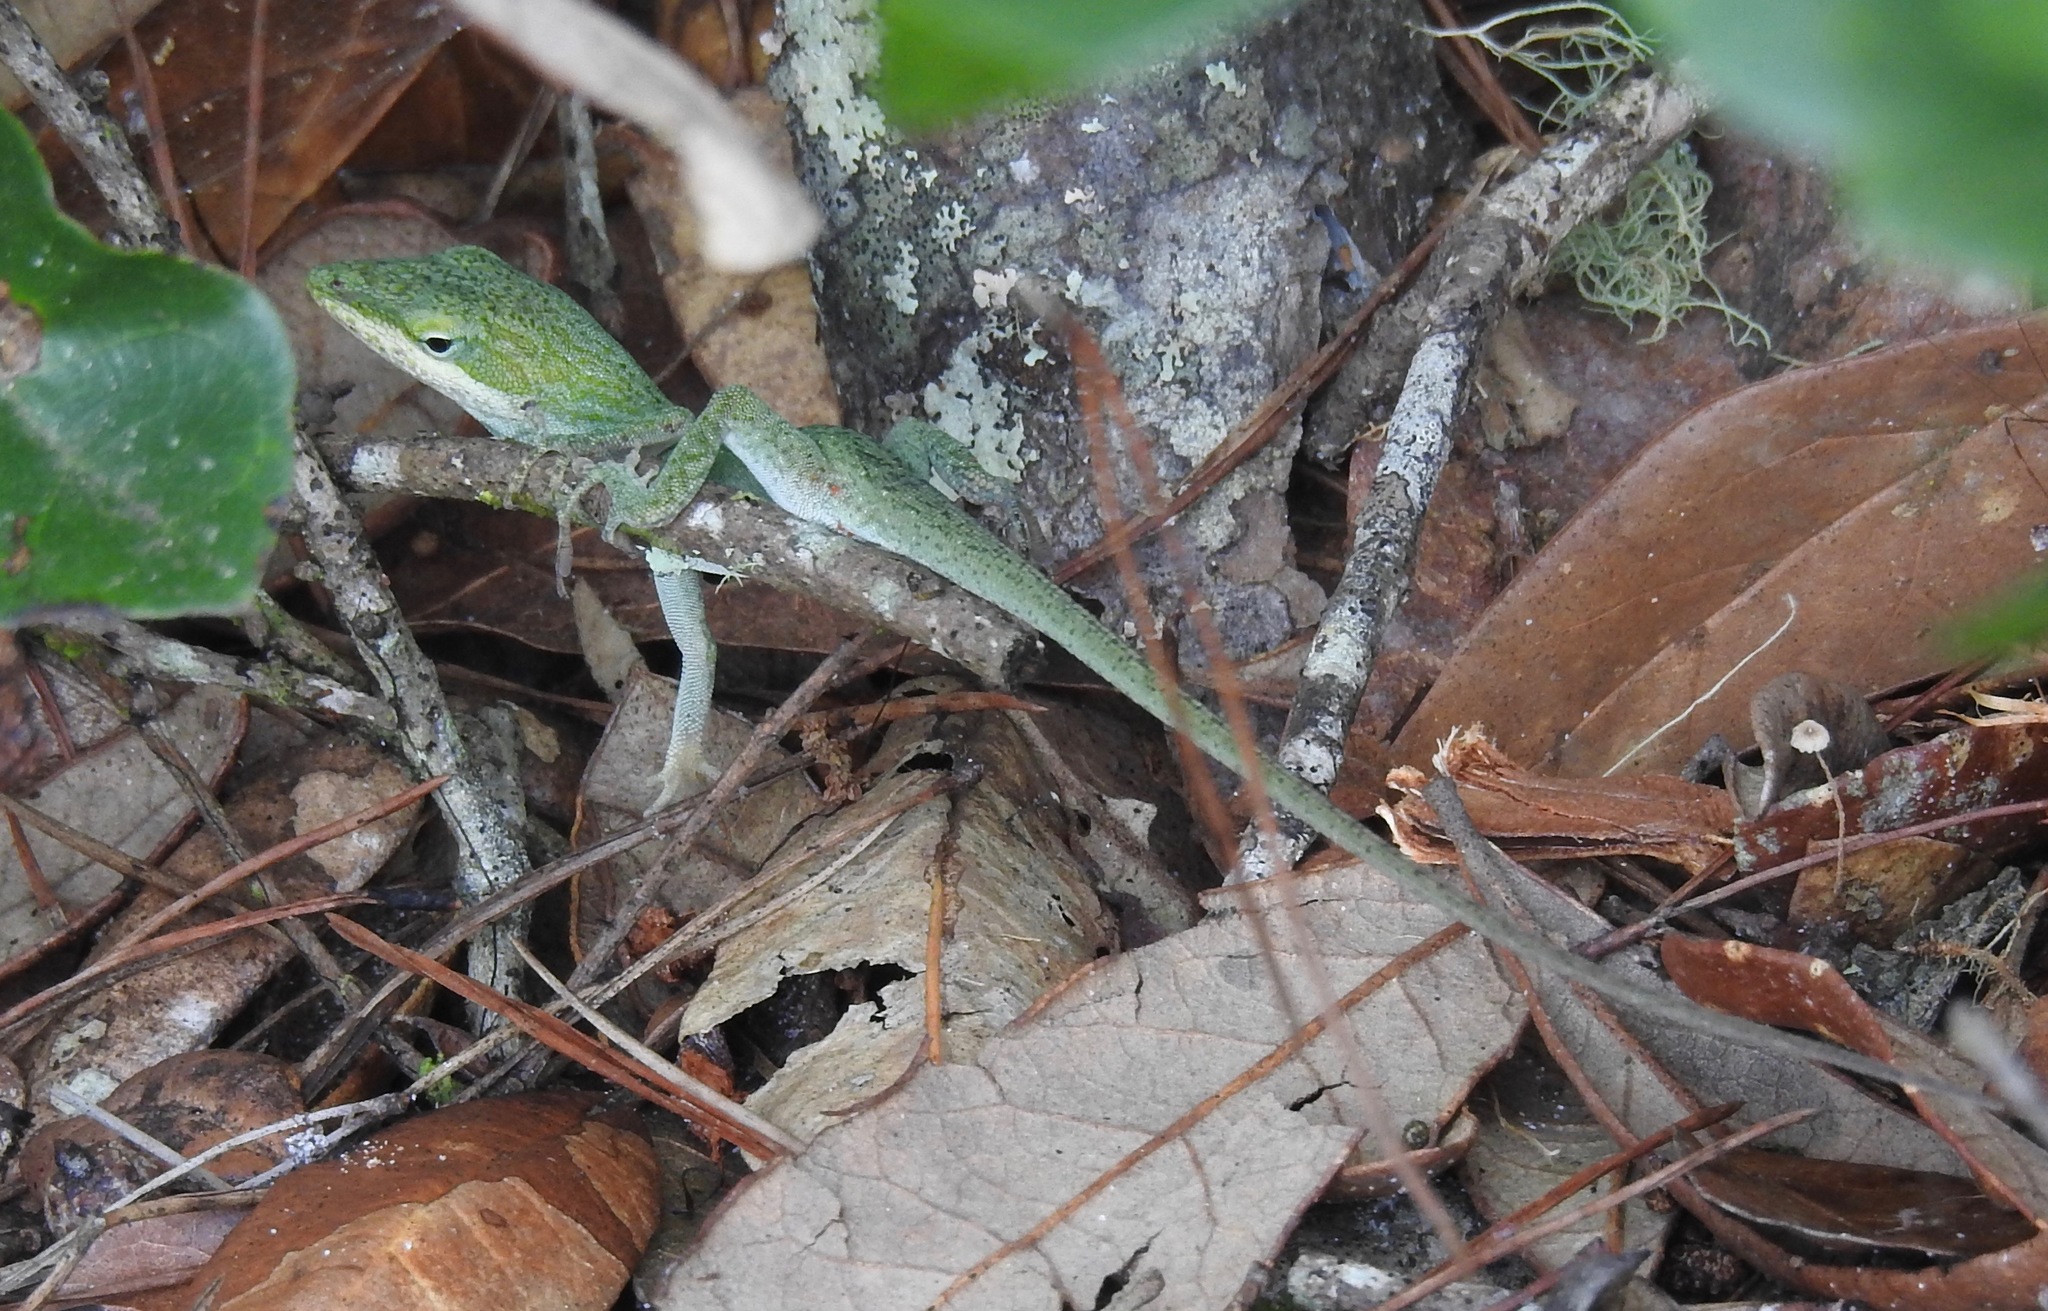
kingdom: Animalia
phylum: Chordata
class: Squamata
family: Dactyloidae
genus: Anolis
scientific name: Anolis carolinensis
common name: Green anole
